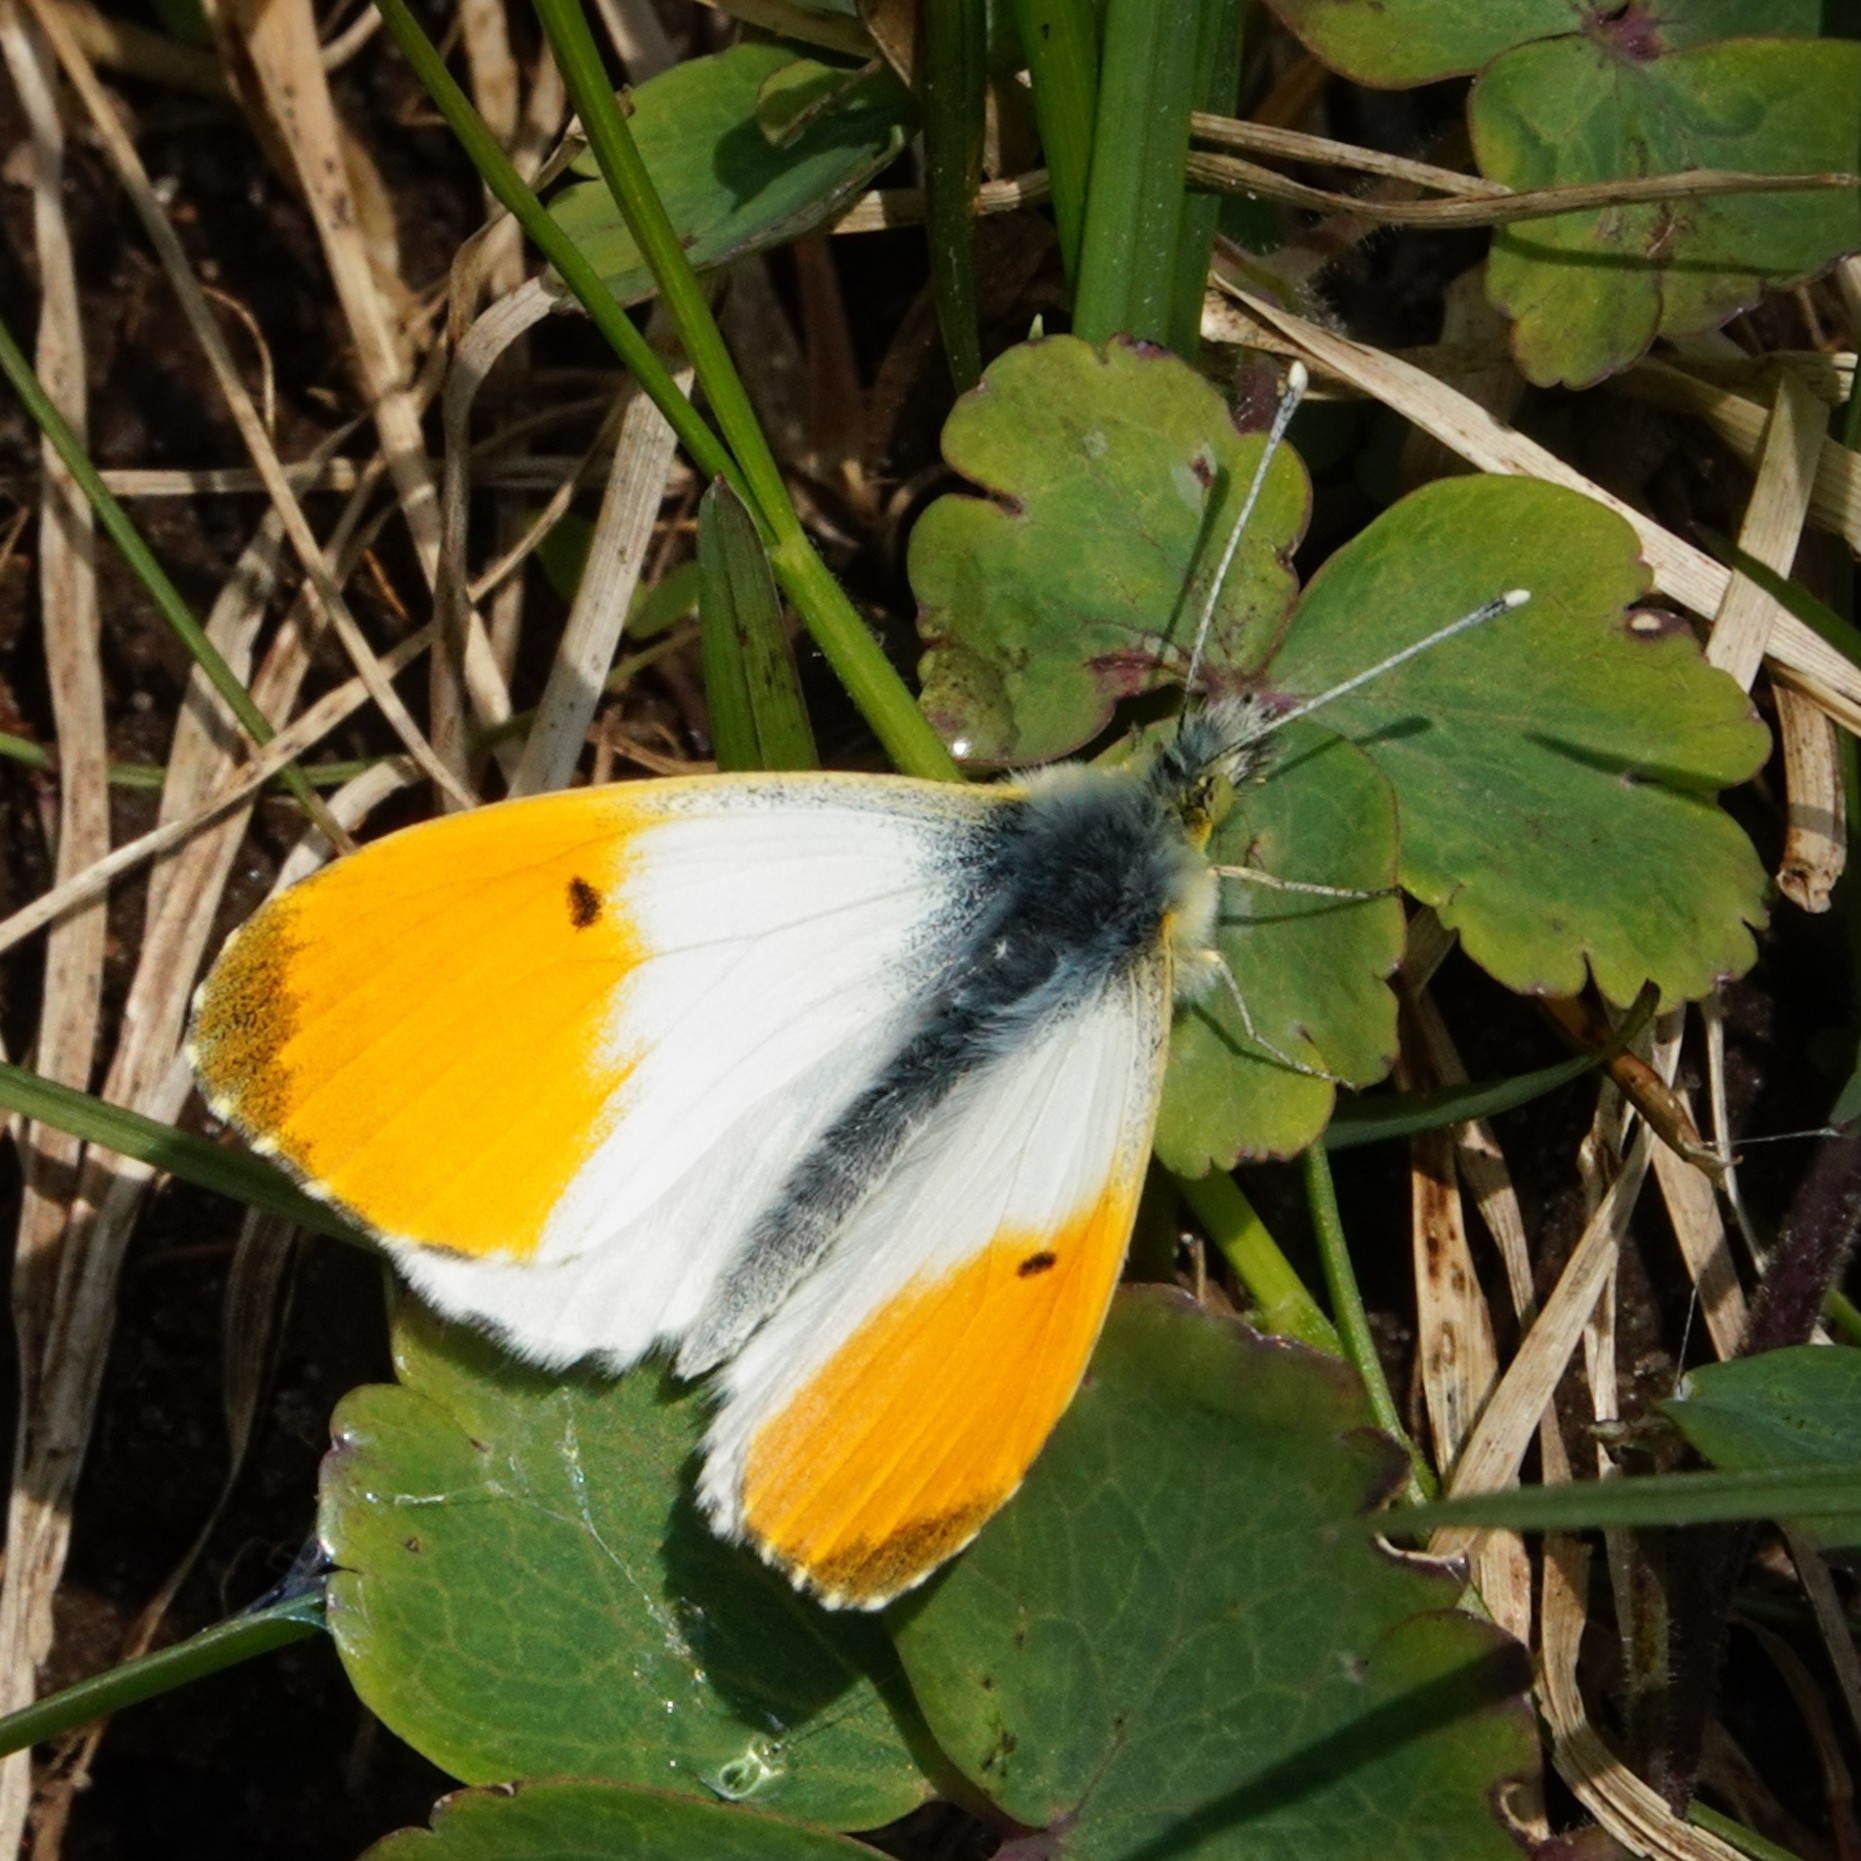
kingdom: Animalia
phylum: Arthropoda
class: Insecta
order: Lepidoptera
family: Pieridae
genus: Anthocharis
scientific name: Anthocharis cardamines
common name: Orange-tip
